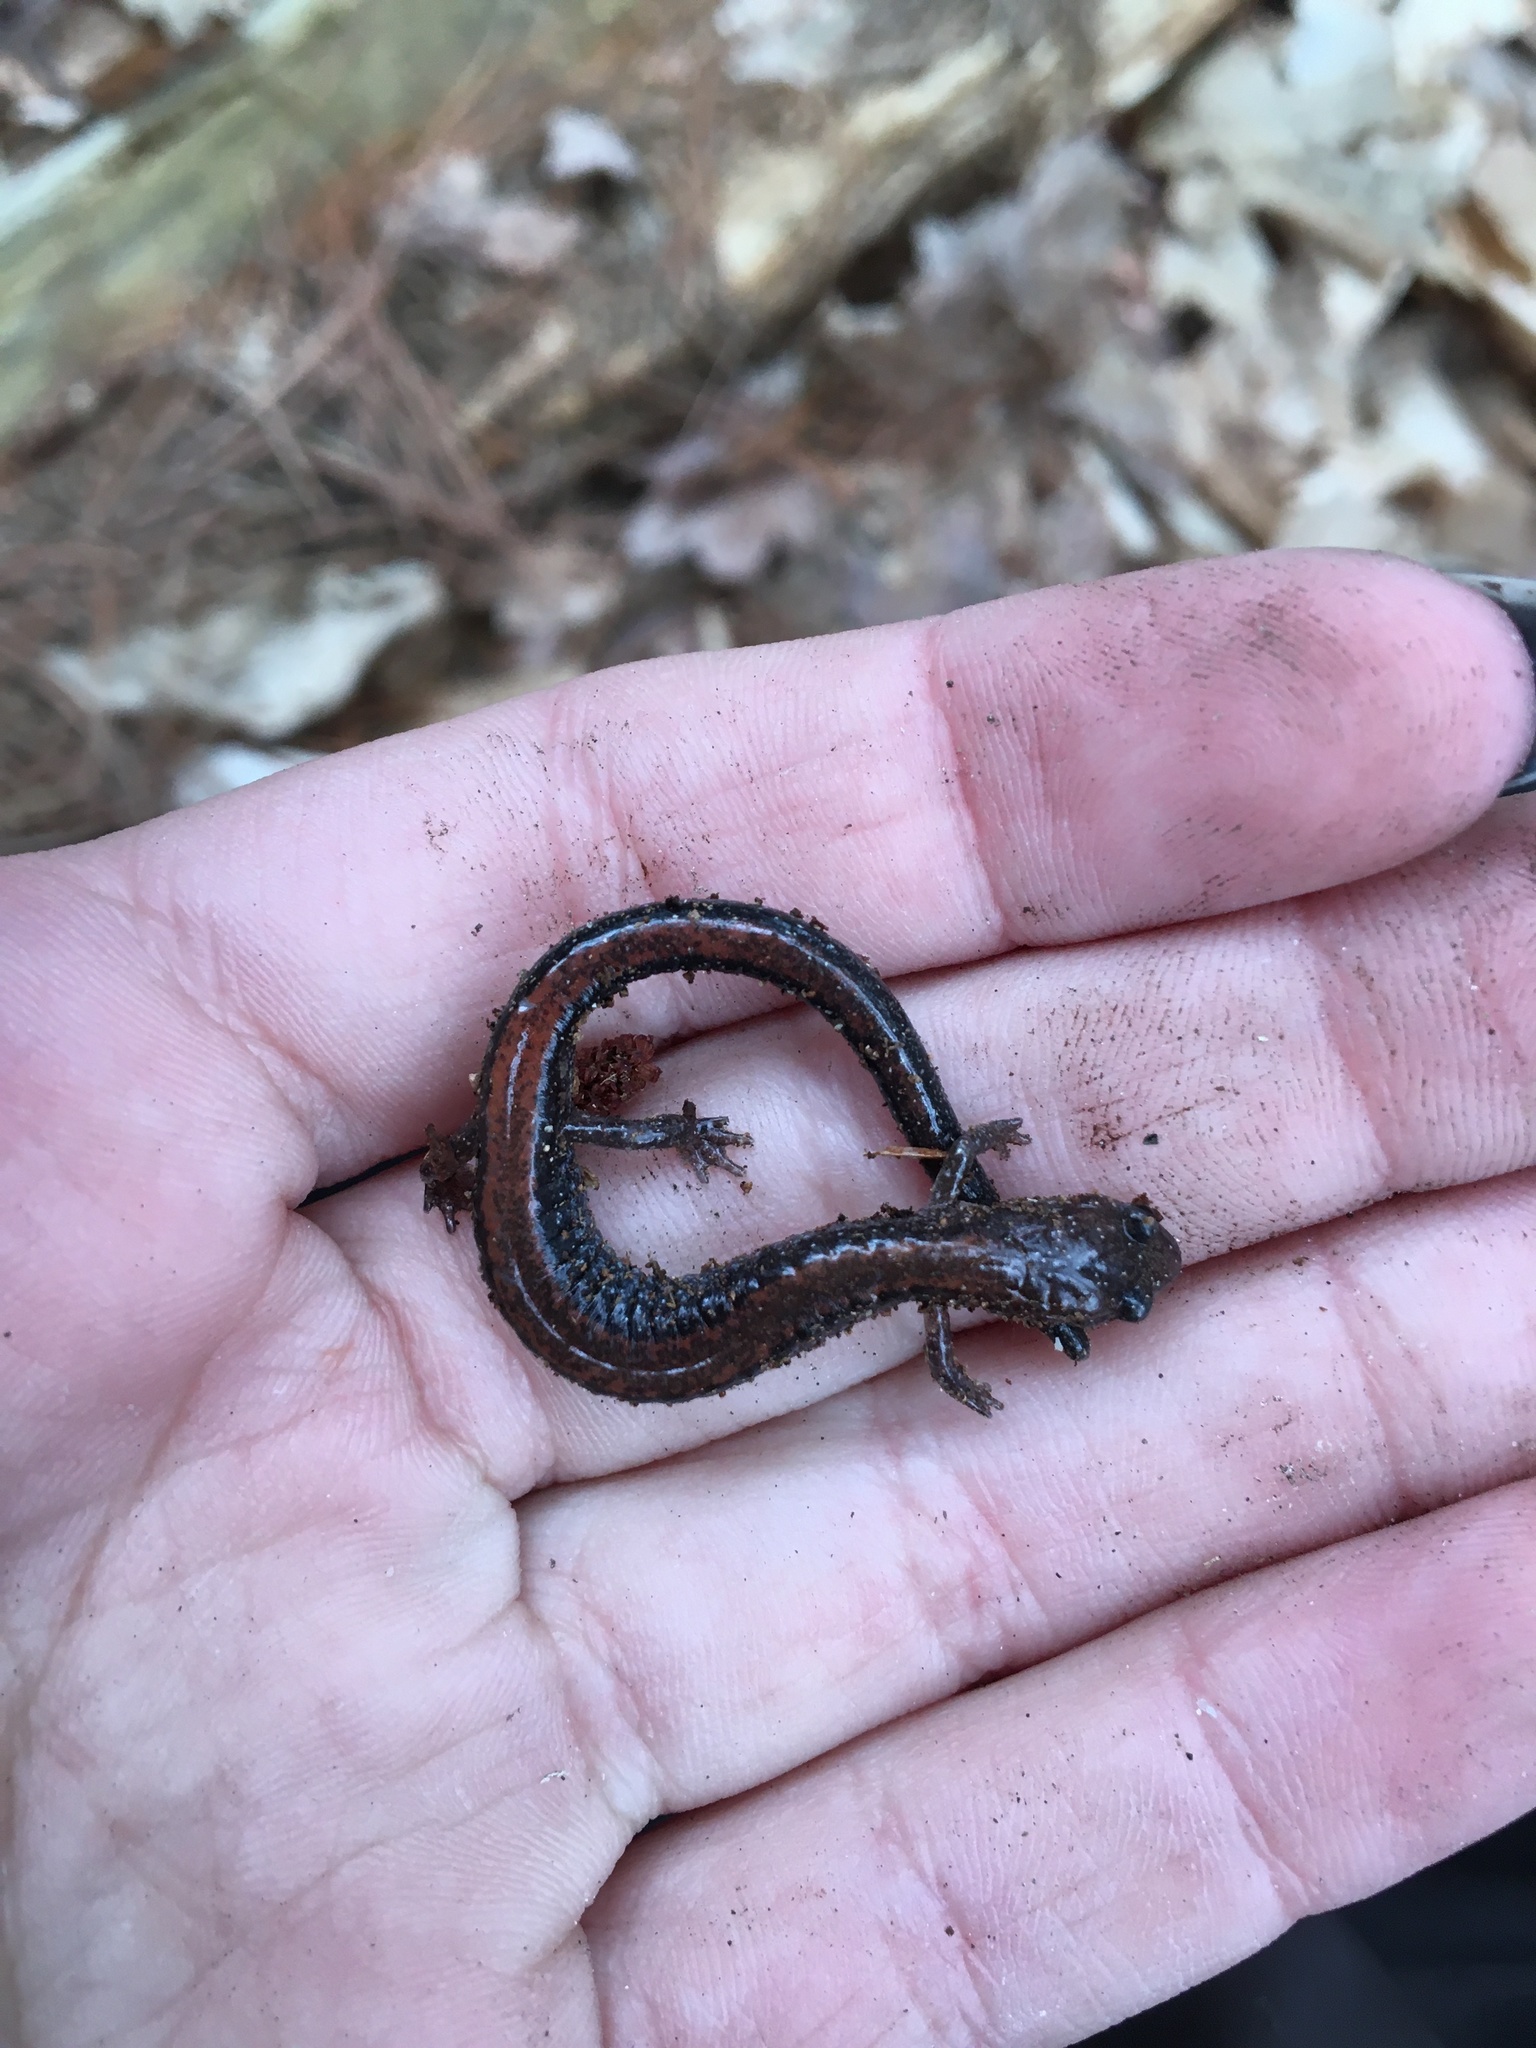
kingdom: Animalia
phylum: Chordata
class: Amphibia
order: Caudata
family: Plethodontidae
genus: Plethodon
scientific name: Plethodon cinereus
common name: Redback salamander
